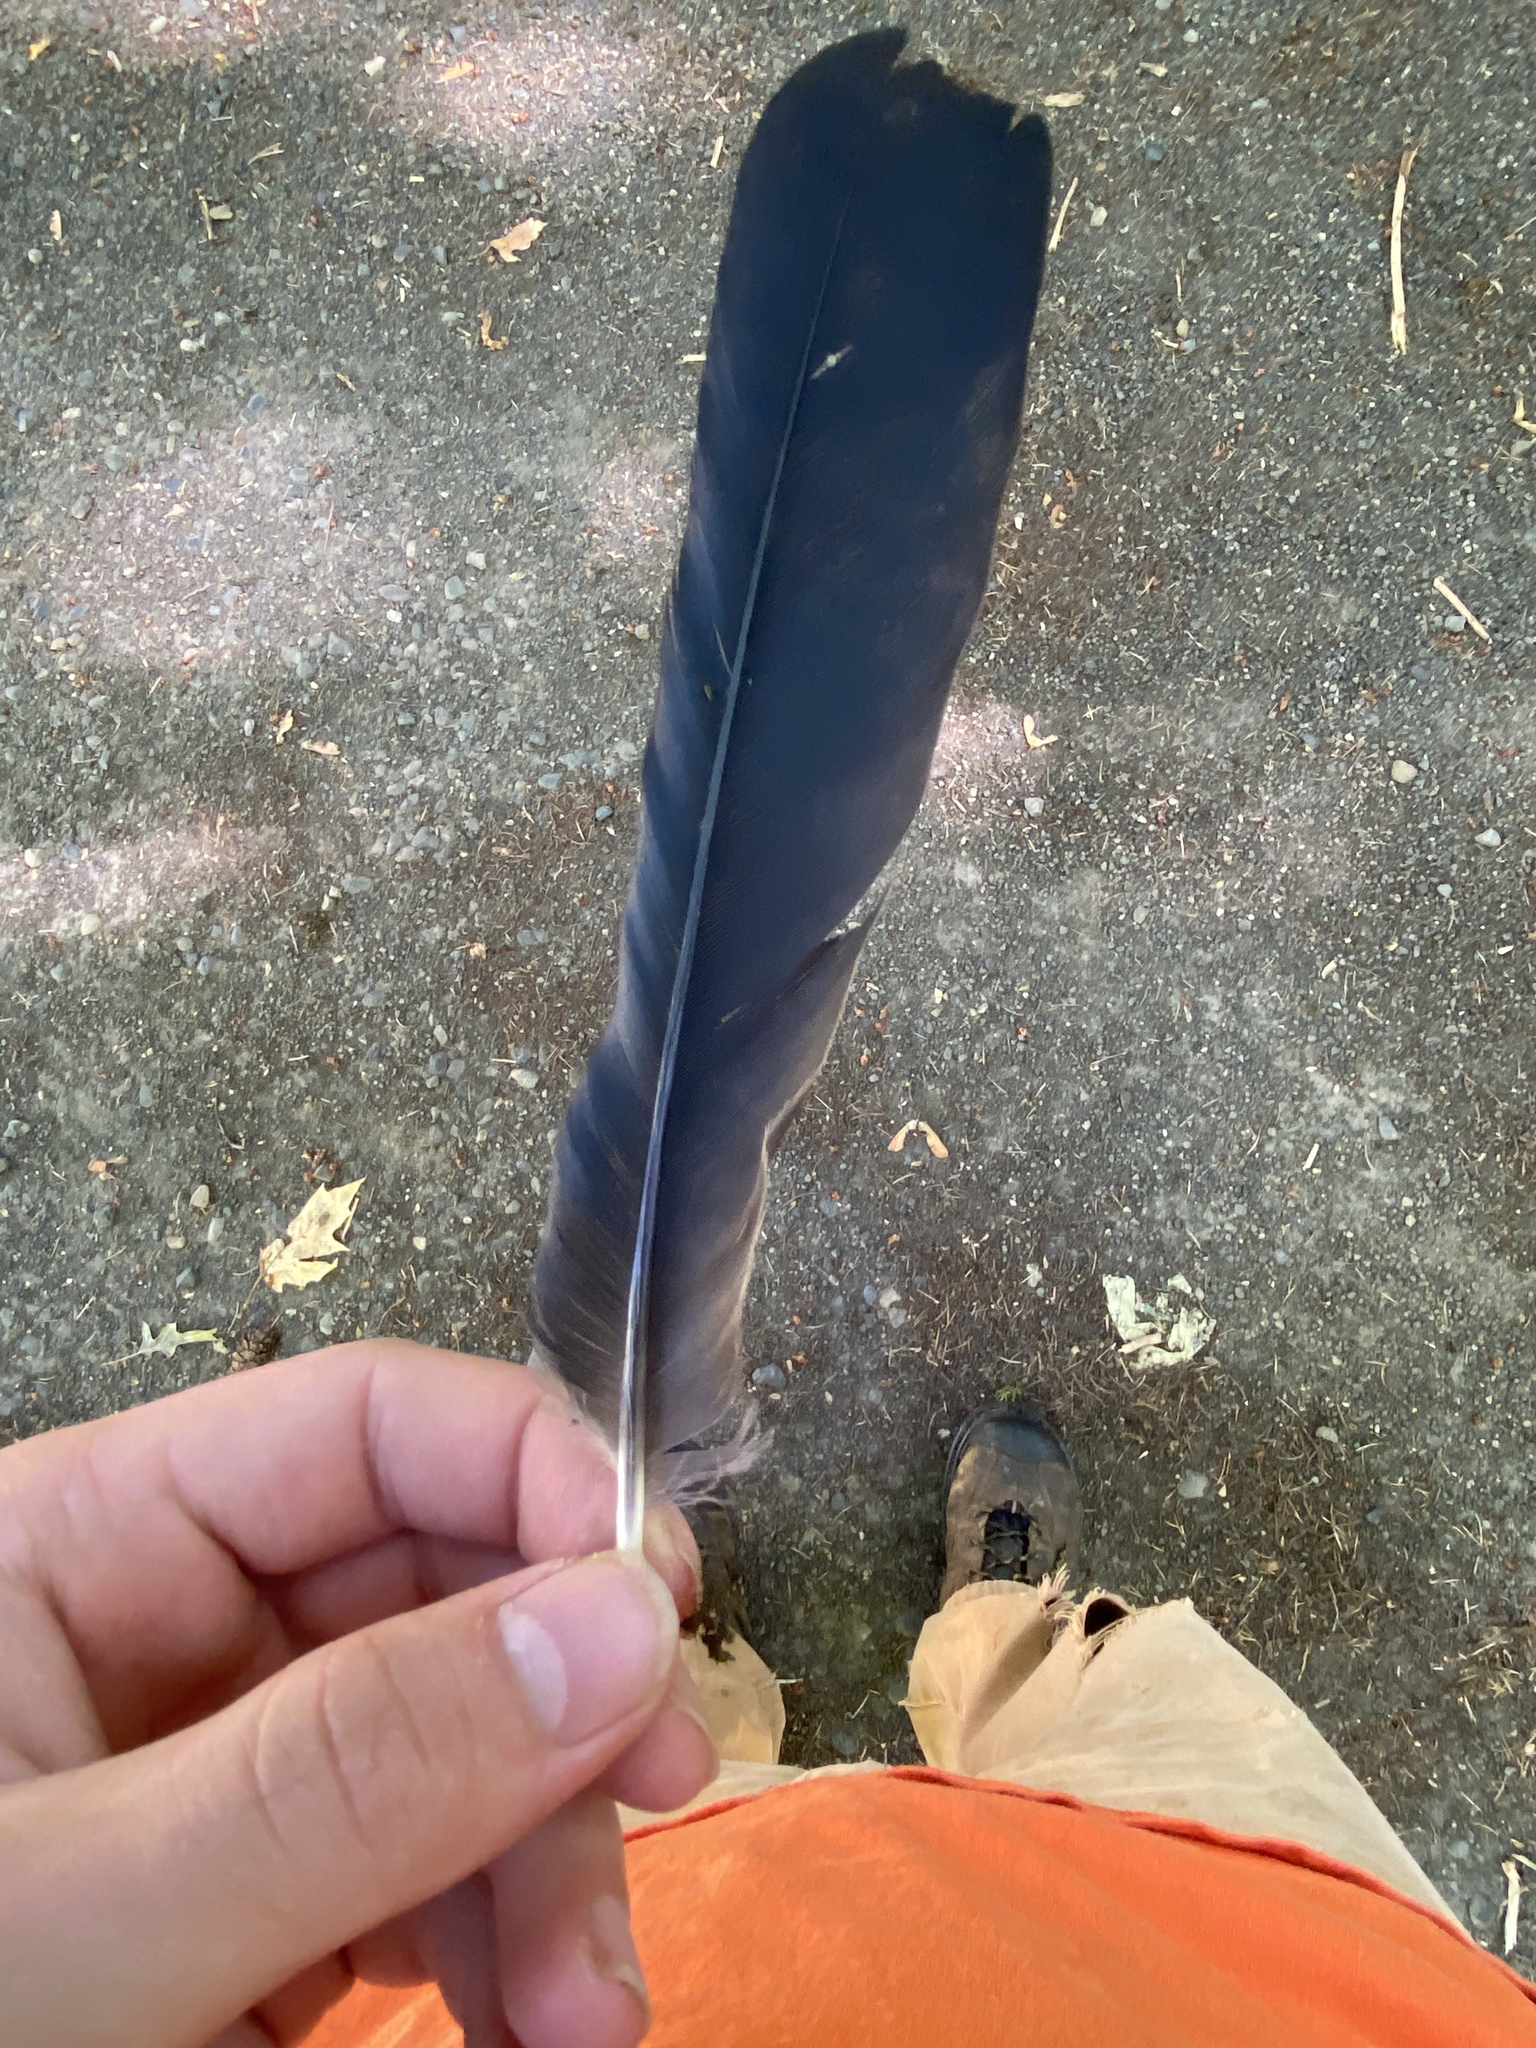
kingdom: Animalia
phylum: Chordata
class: Aves
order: Passeriformes
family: Corvidae
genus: Corvus
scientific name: Corvus brachyrhynchos
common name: American crow
